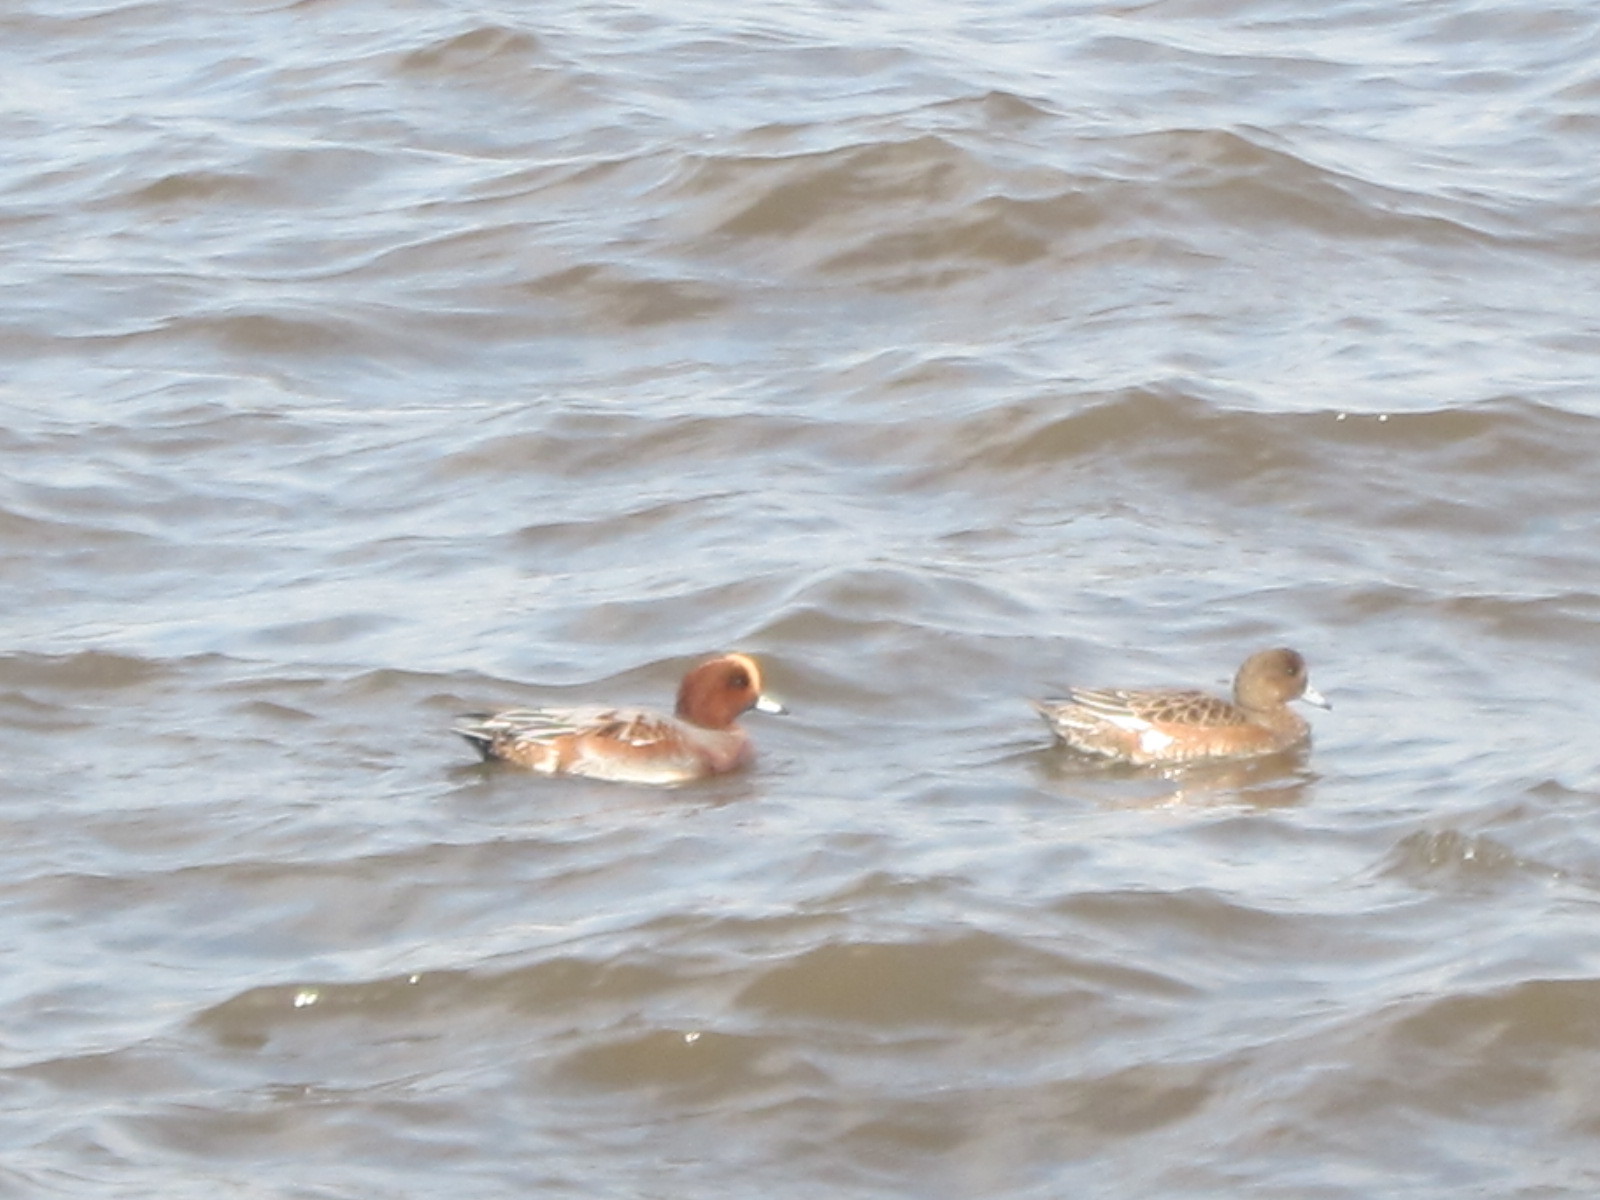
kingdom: Animalia
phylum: Chordata
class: Aves
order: Anseriformes
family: Anatidae
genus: Mareca
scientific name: Mareca penelope
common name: Eurasian wigeon
